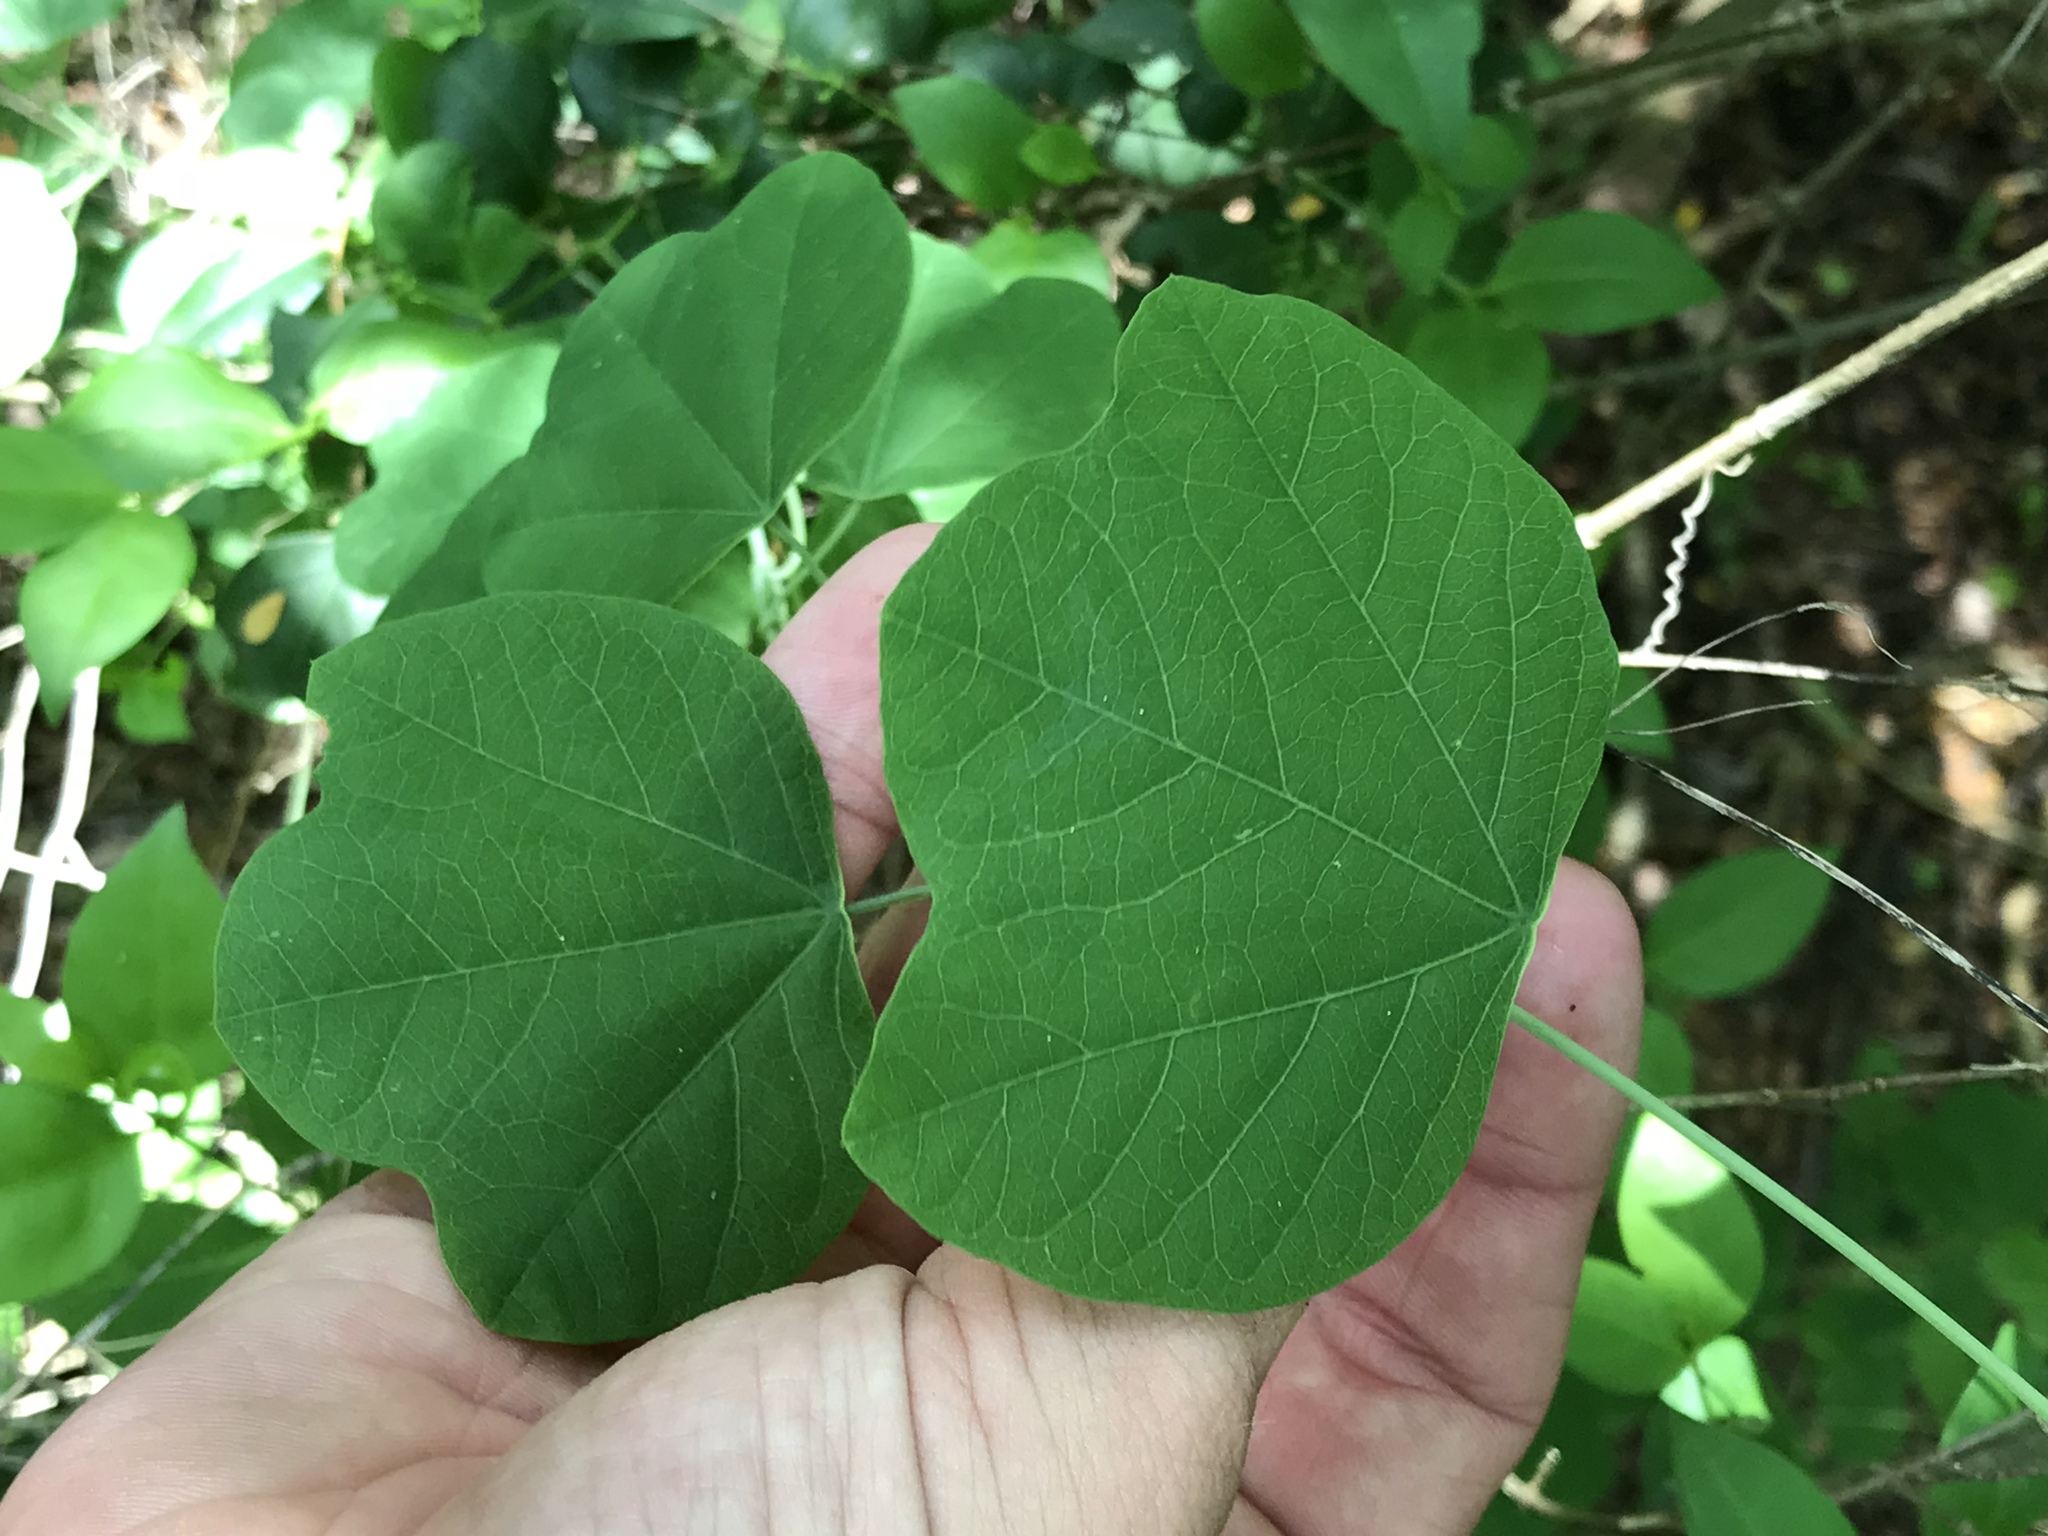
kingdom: Plantae
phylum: Tracheophyta
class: Magnoliopsida
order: Malpighiales
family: Passifloraceae
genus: Passiflora
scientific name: Passiflora filipes
